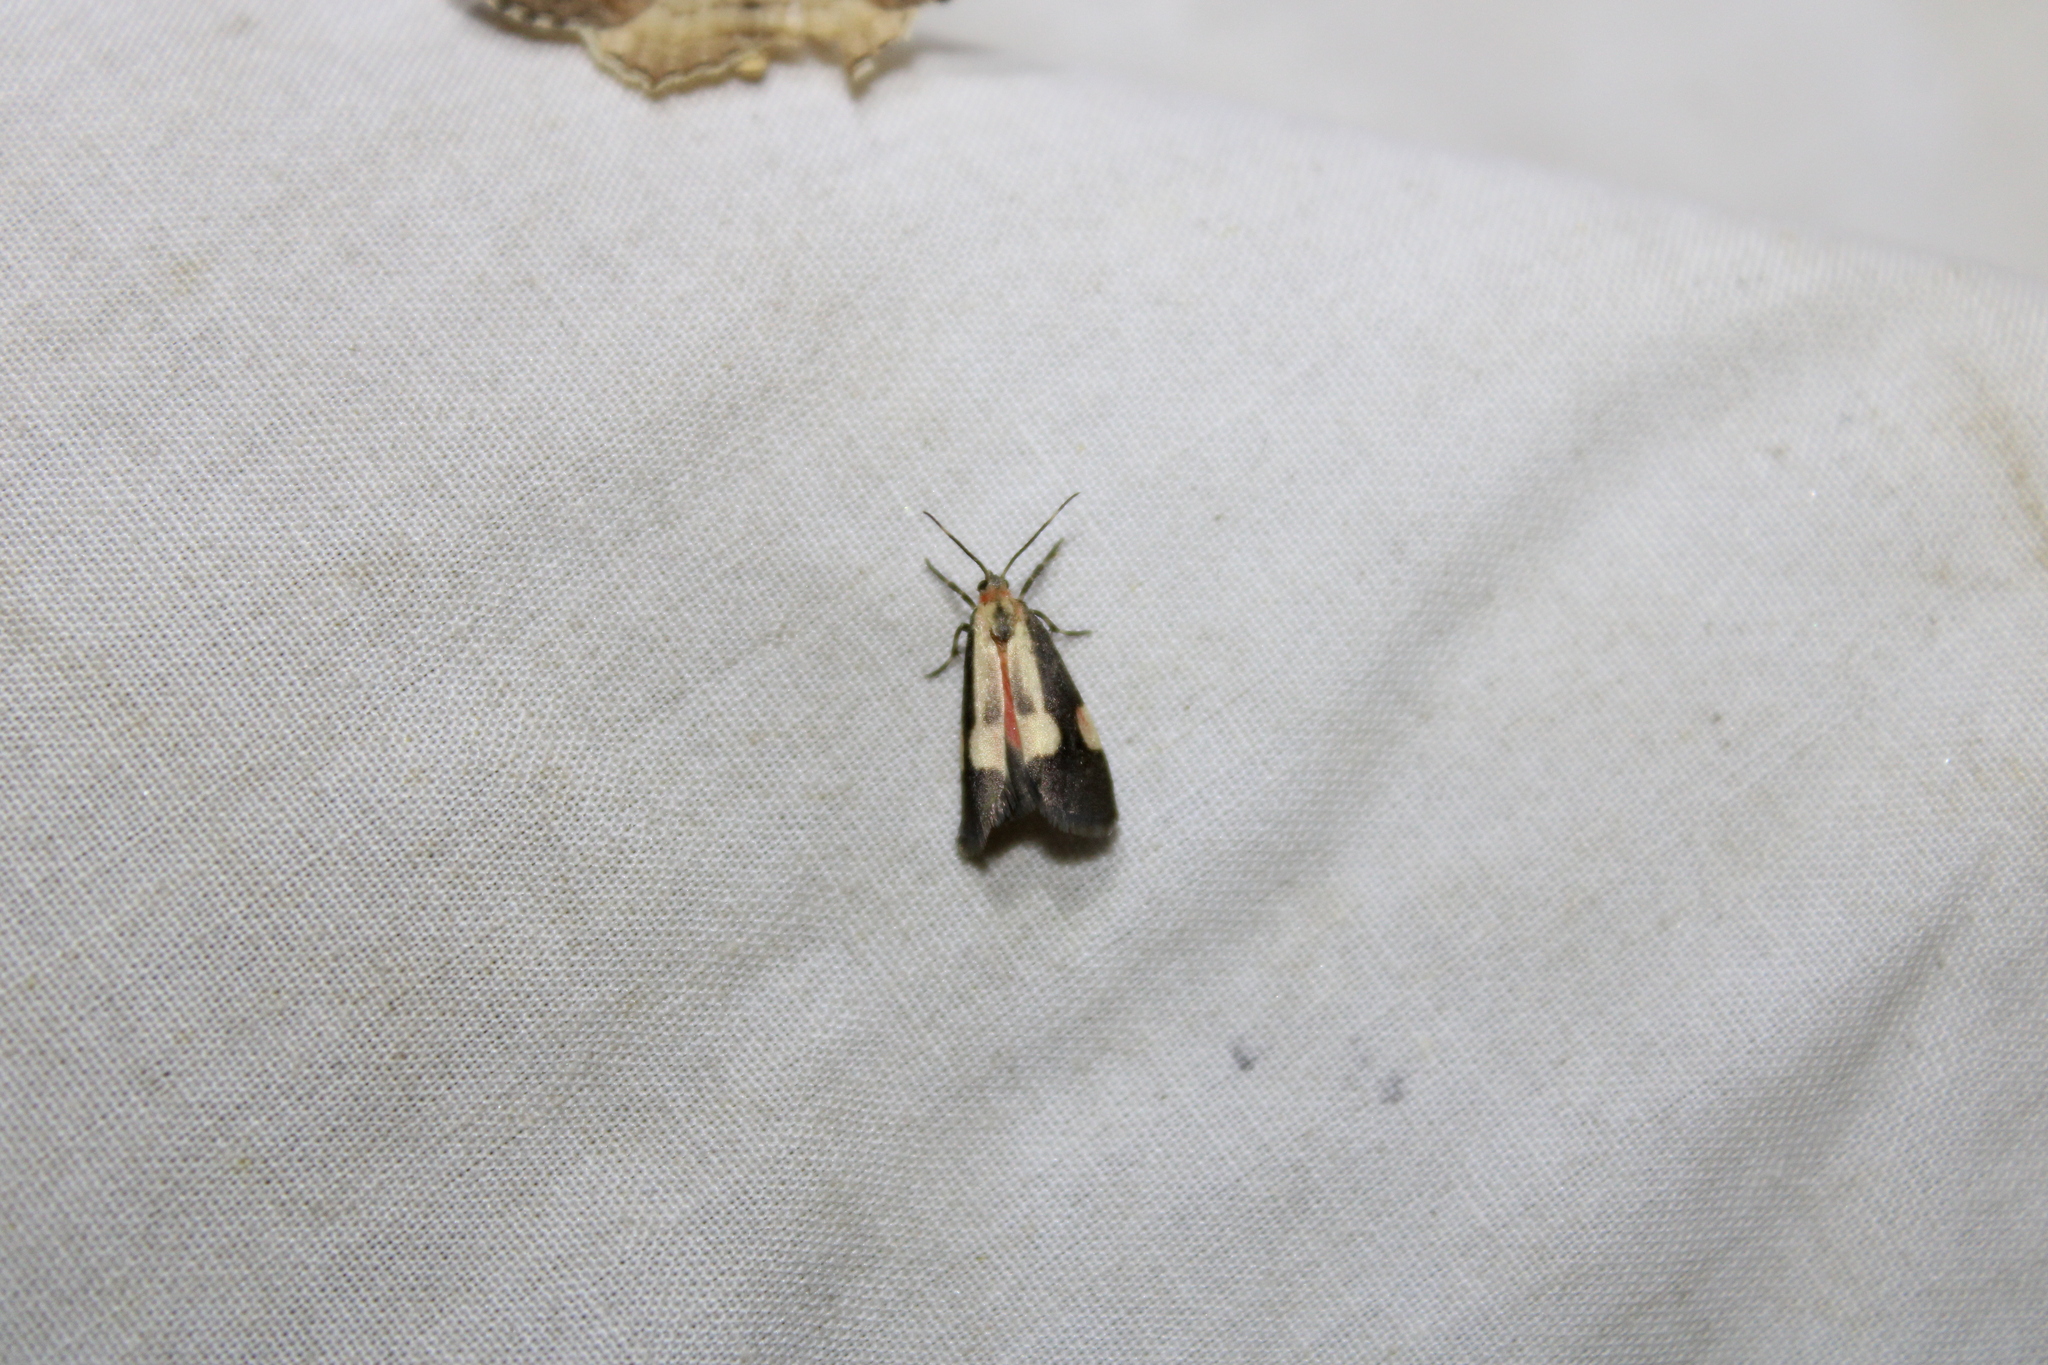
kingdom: Animalia
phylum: Arthropoda
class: Insecta
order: Lepidoptera
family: Erebidae
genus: Cisthene
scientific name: Cisthene packardii
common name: Packard's lichen moth
